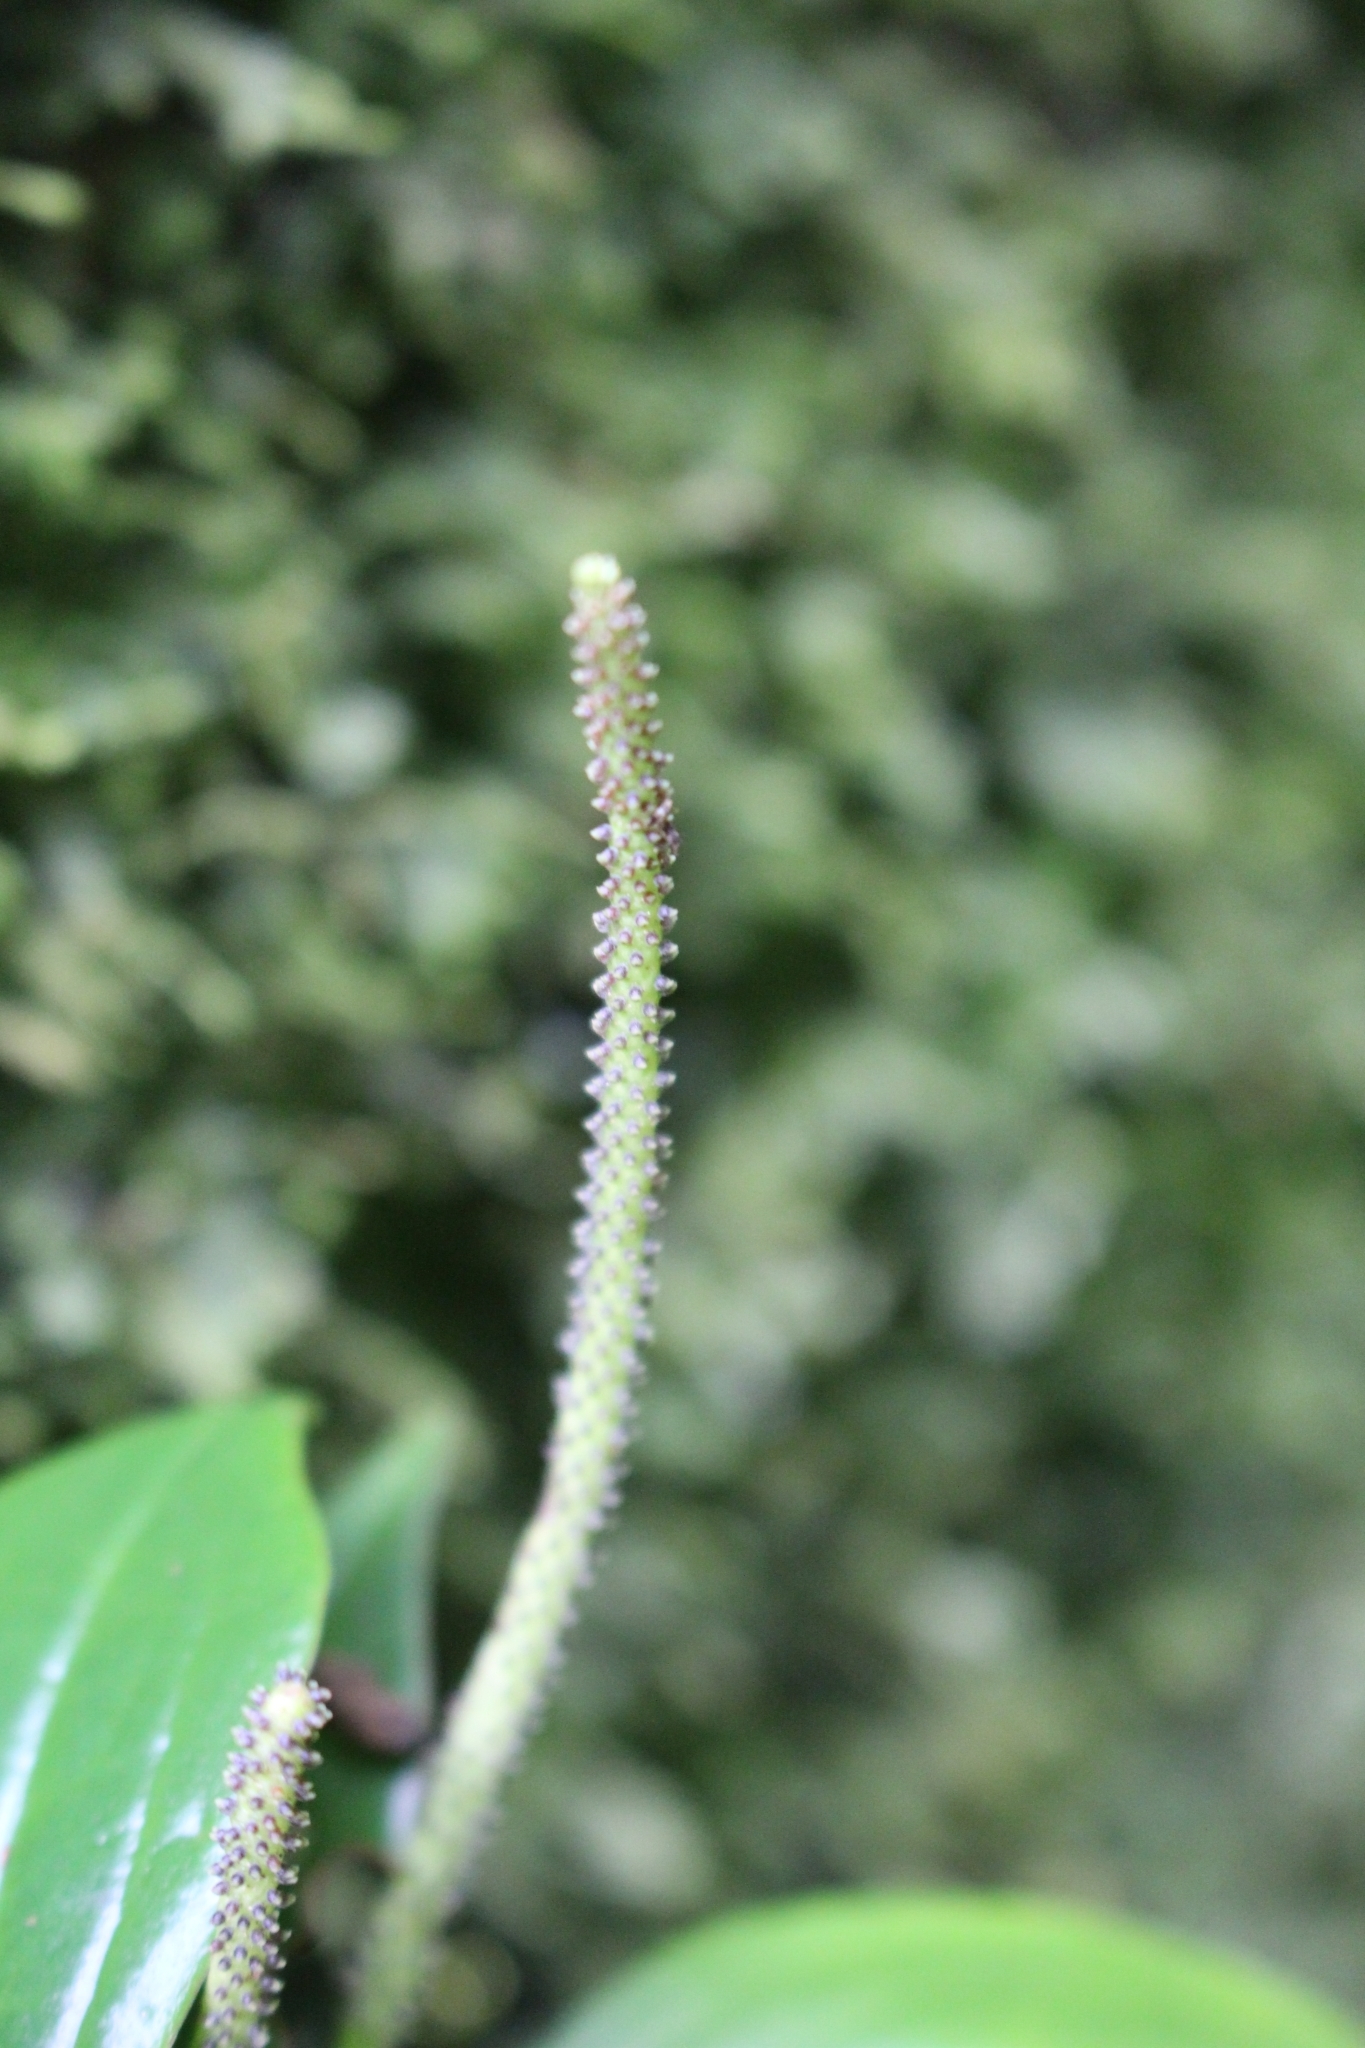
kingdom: Plantae
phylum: Tracheophyta
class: Magnoliopsida
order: Piperales
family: Piperaceae
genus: Peperomia
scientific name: Peperomia san-joseana
